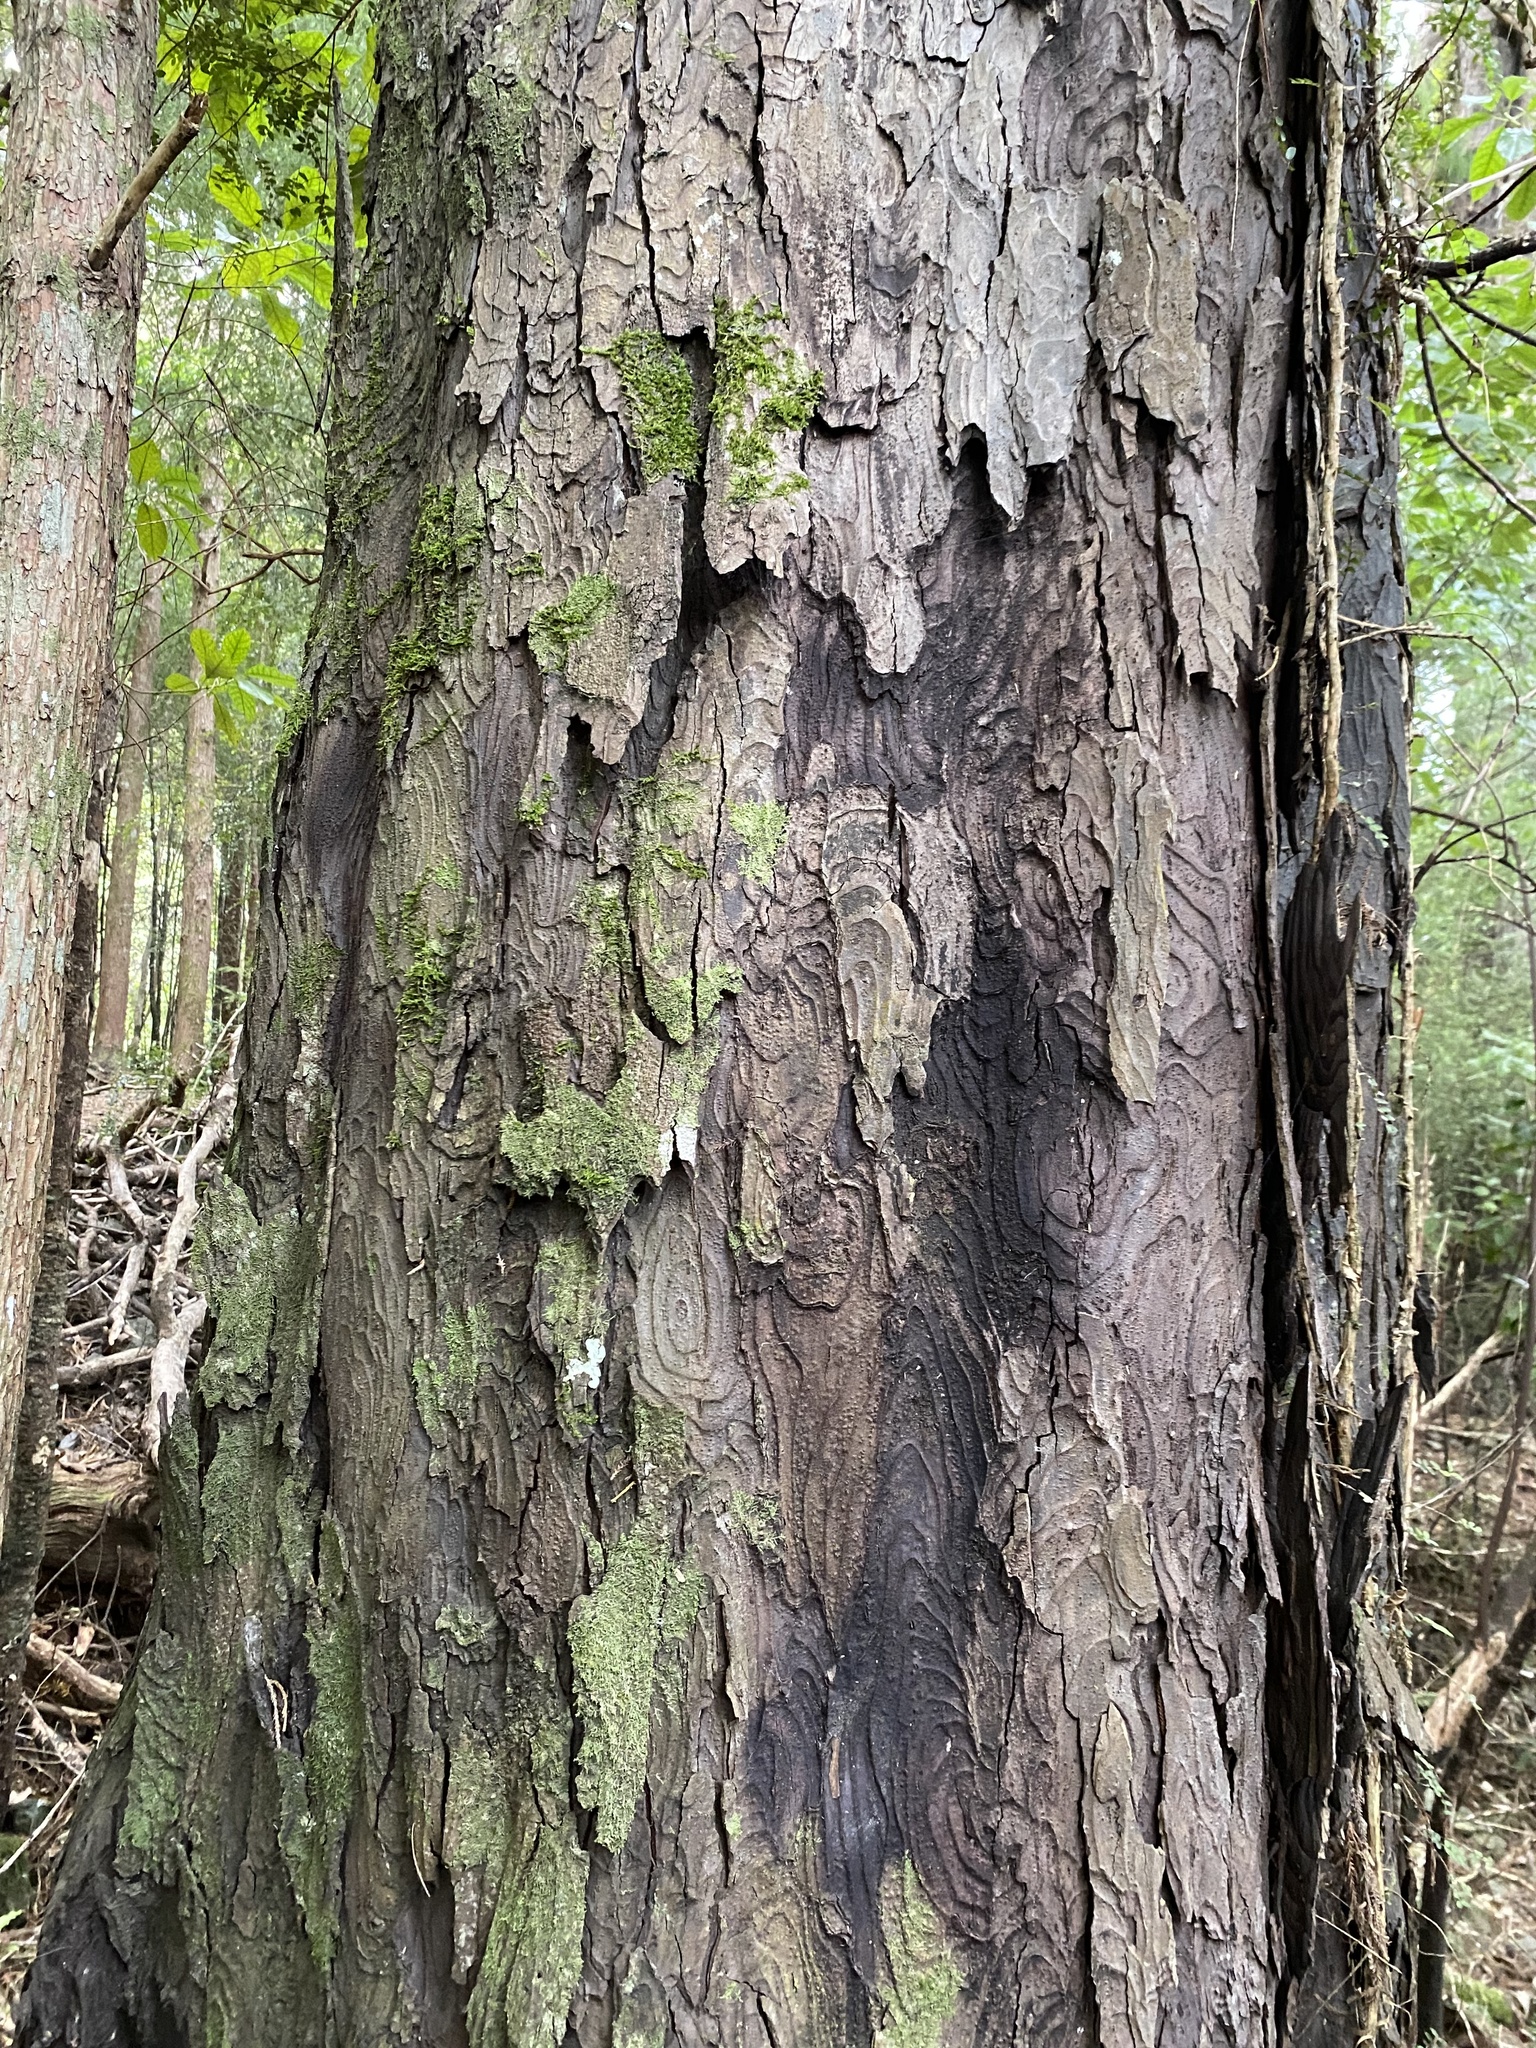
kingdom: Plantae
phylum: Tracheophyta
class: Pinopsida
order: Pinales
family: Podocarpaceae
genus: Dacrydium
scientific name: Dacrydium cupressinum
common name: Red pine
